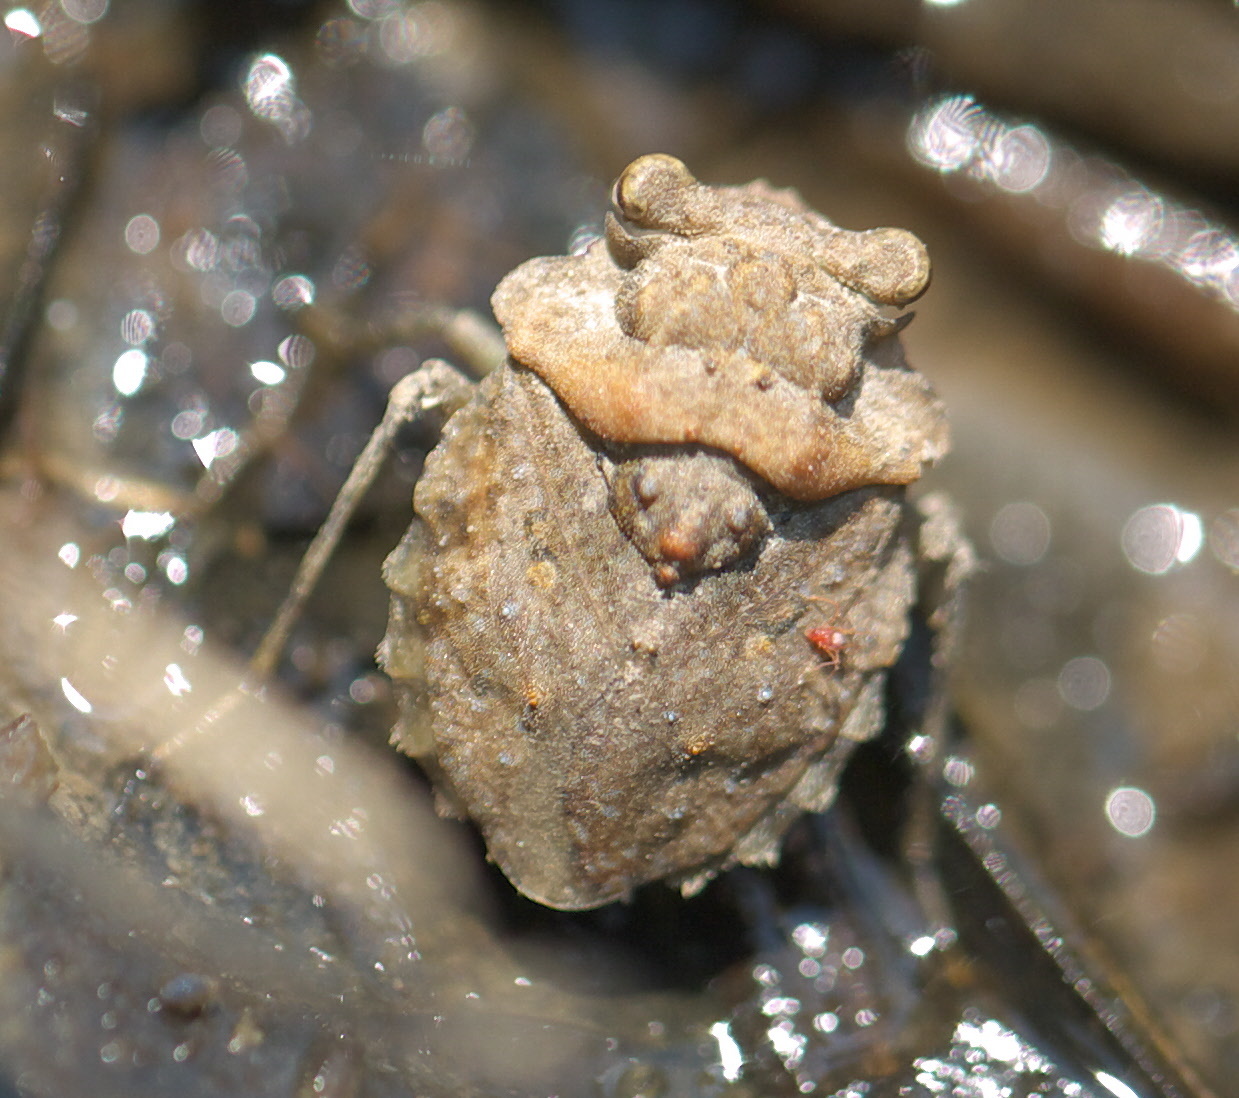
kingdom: Animalia
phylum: Arthropoda
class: Insecta
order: Hemiptera
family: Gelastocoridae
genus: Gelastocoris
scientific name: Gelastocoris oculatus
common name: Toad bug
